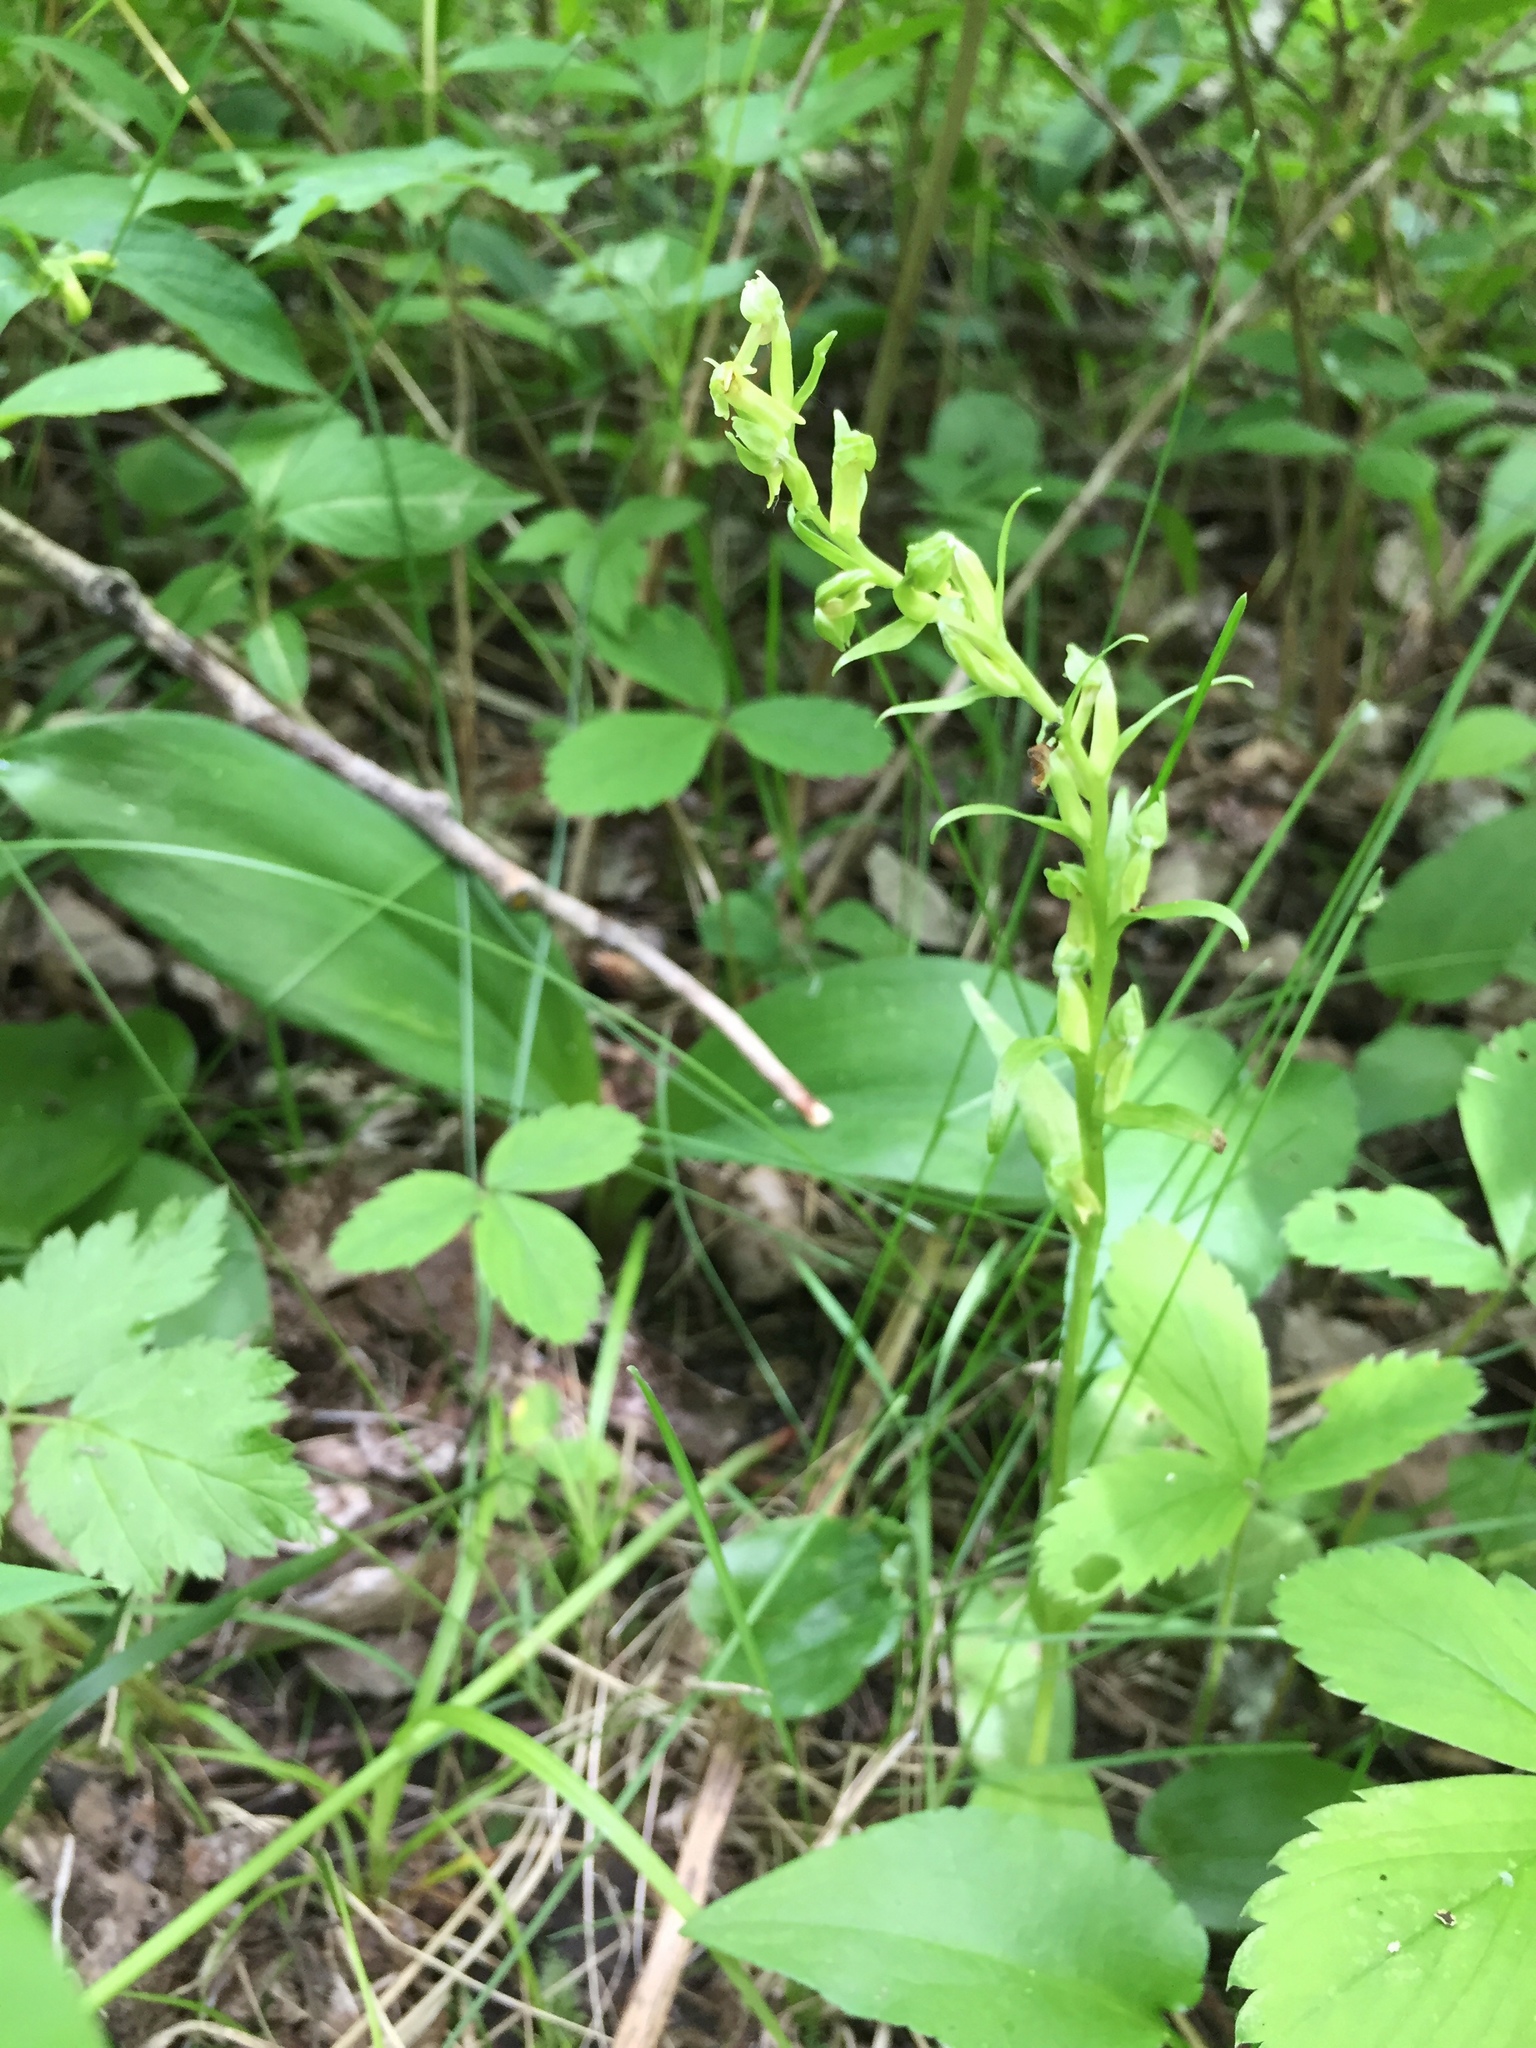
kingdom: Plantae
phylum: Tracheophyta
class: Liliopsida
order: Asparagales
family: Orchidaceae
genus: Dactylorhiza
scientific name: Dactylorhiza viridis
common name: Longbract frog orchid
